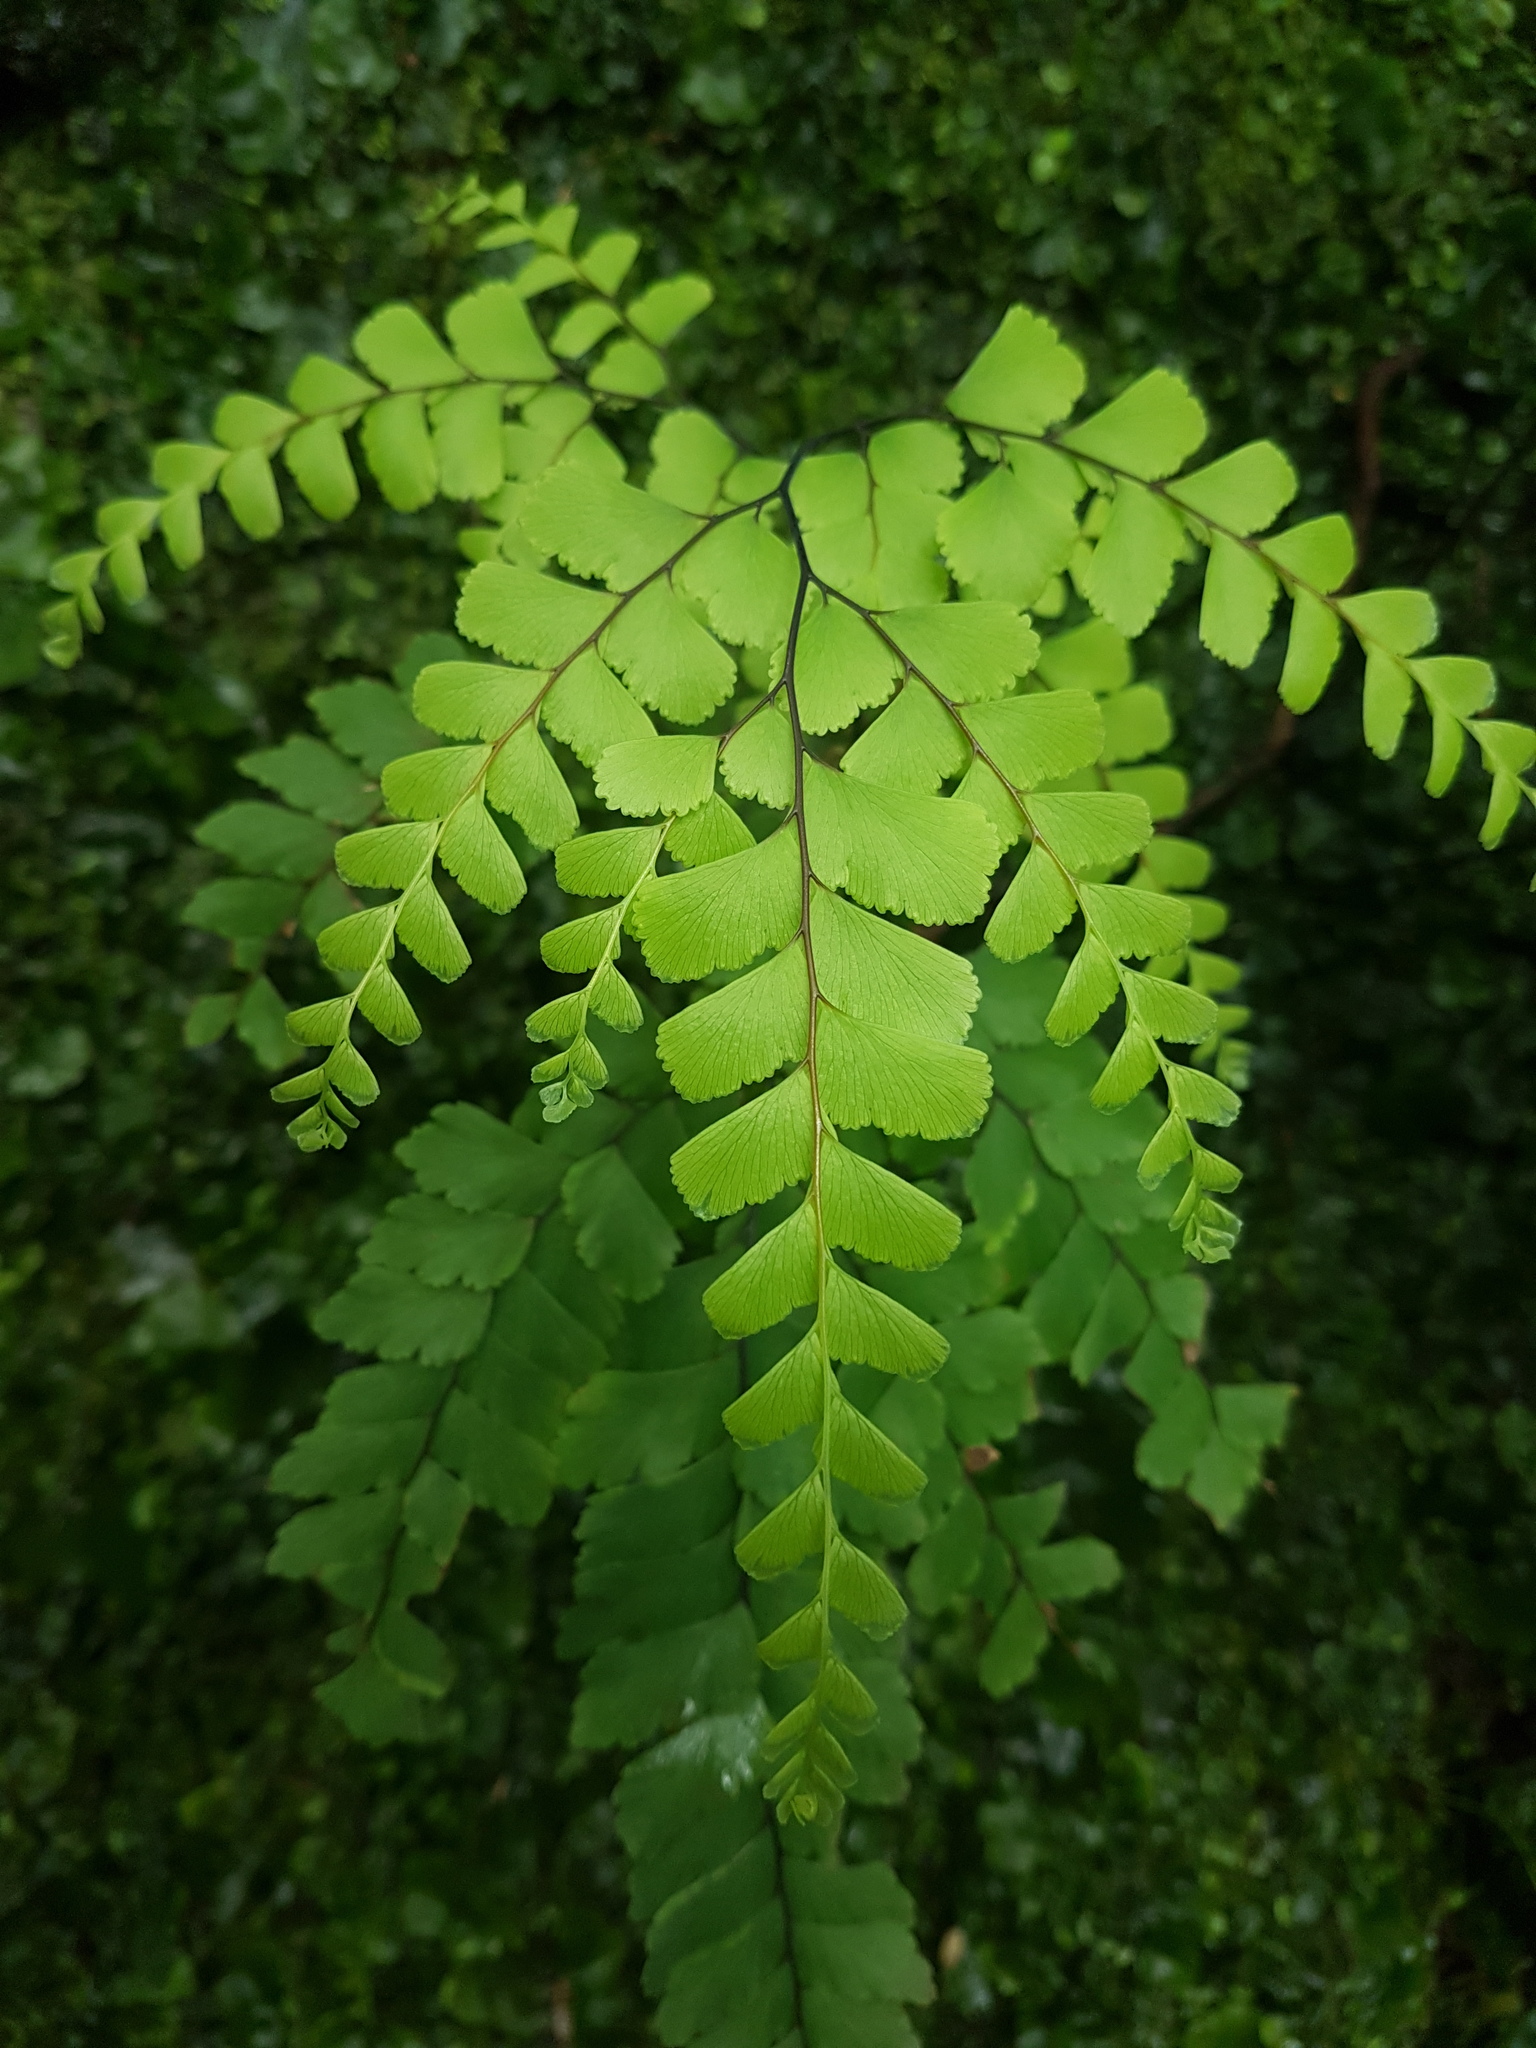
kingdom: Plantae
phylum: Tracheophyta
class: Polypodiopsida
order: Polypodiales
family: Pteridaceae
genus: Adiantum
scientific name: Adiantum cunninghamii
